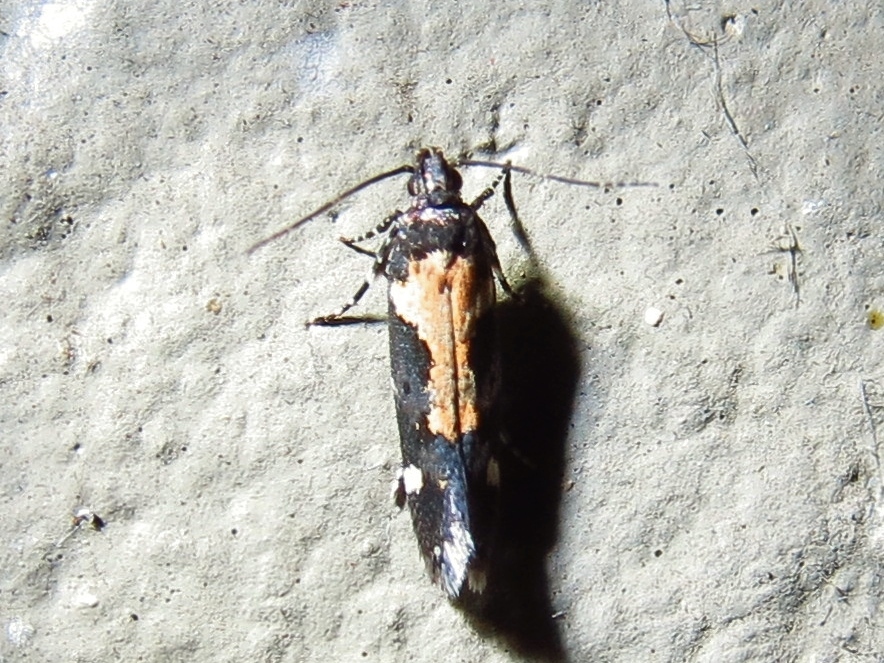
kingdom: Animalia
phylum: Arthropoda
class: Insecta
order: Lepidoptera
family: Gelechiidae
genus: Stegasta
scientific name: Stegasta bosqueella
